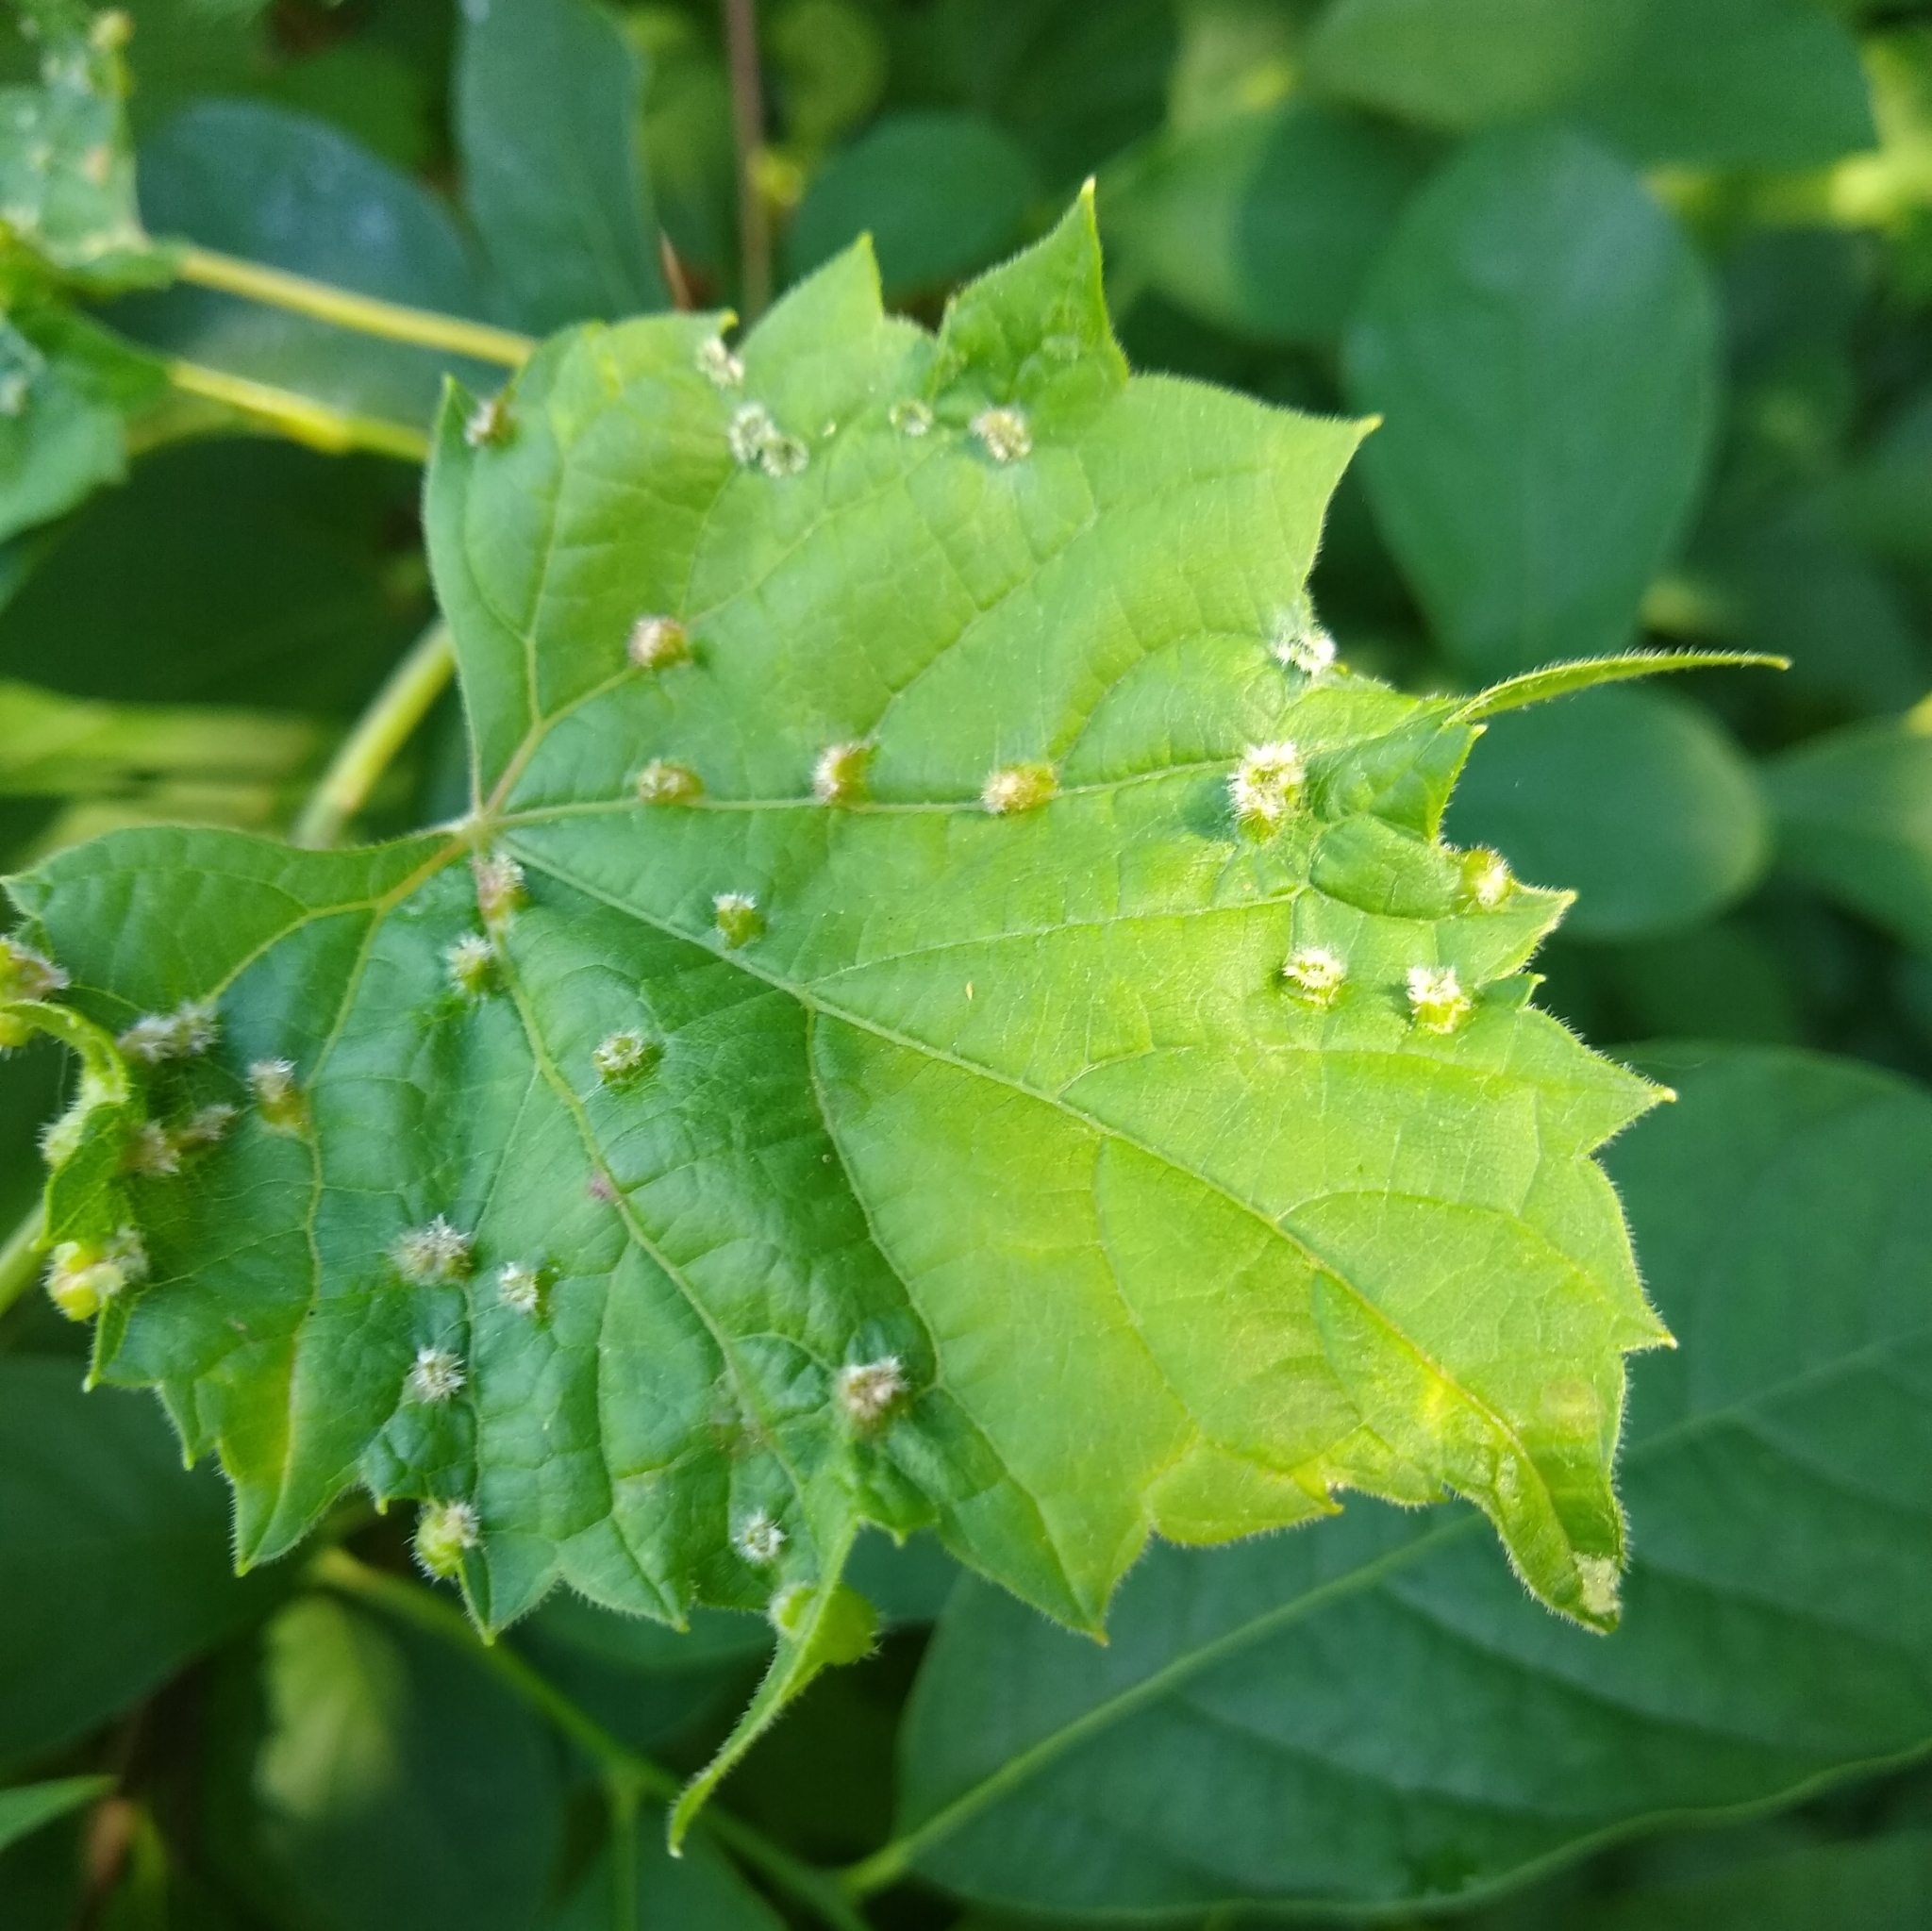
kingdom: Animalia
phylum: Arthropoda
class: Insecta
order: Hemiptera
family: Phylloxeridae
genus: Daktulosphaira
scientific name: Daktulosphaira vitifoliae
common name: Grape phylloxera
